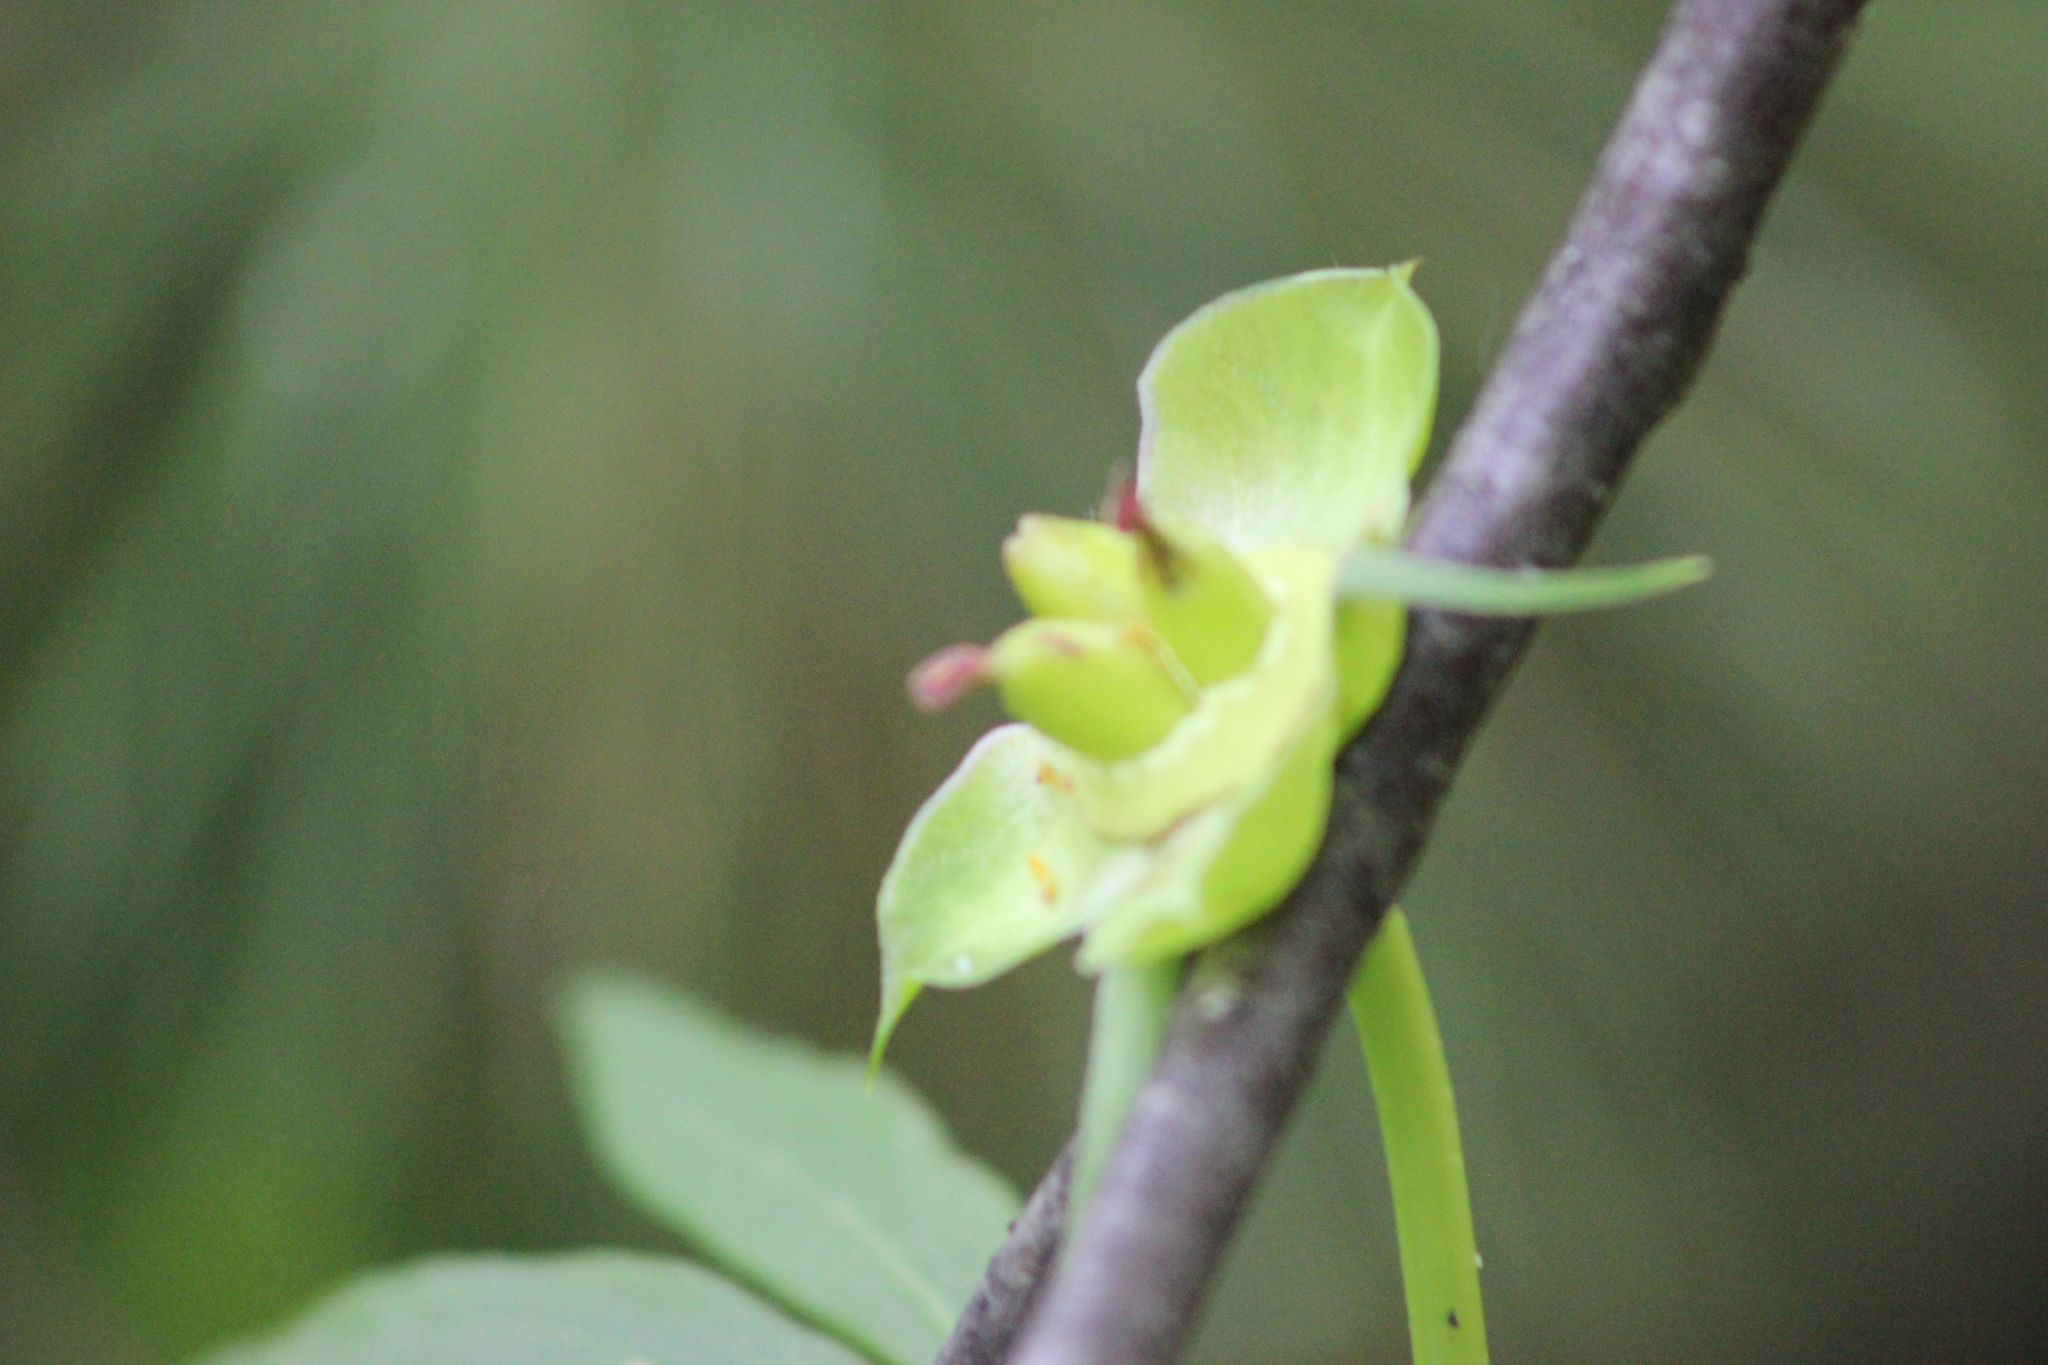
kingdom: Plantae
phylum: Tracheophyta
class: Magnoliopsida
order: Saxifragales
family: Paeoniaceae
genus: Paeonia
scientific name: Paeonia anomala
